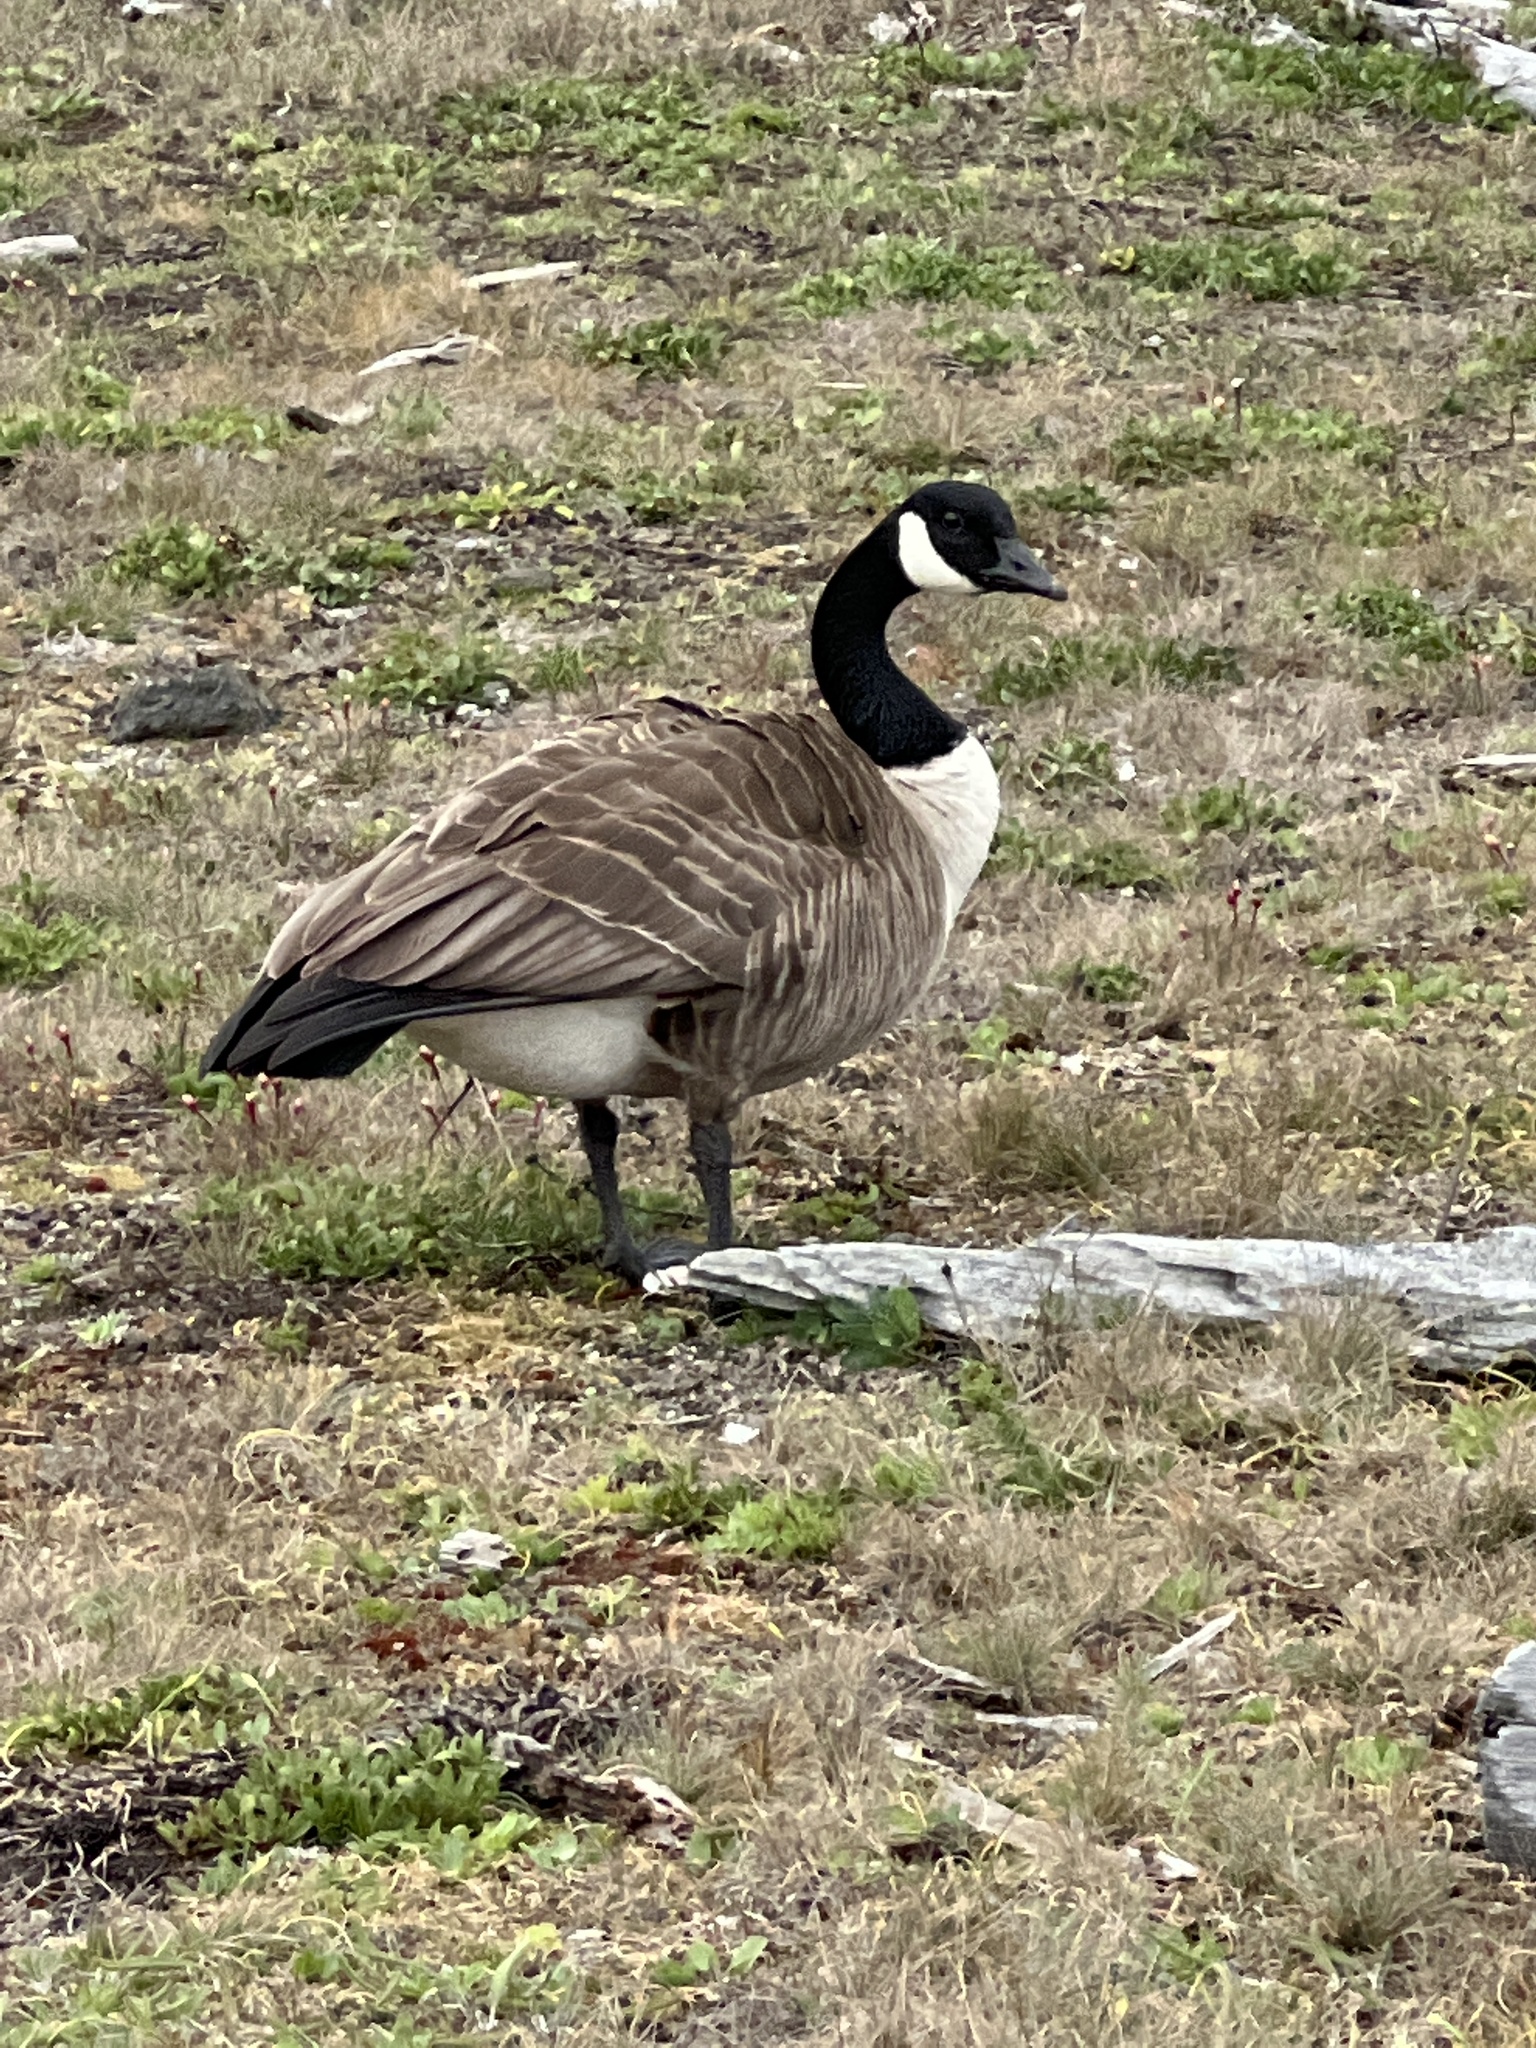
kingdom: Animalia
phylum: Chordata
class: Aves
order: Anseriformes
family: Anatidae
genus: Branta
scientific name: Branta canadensis
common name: Canada goose
